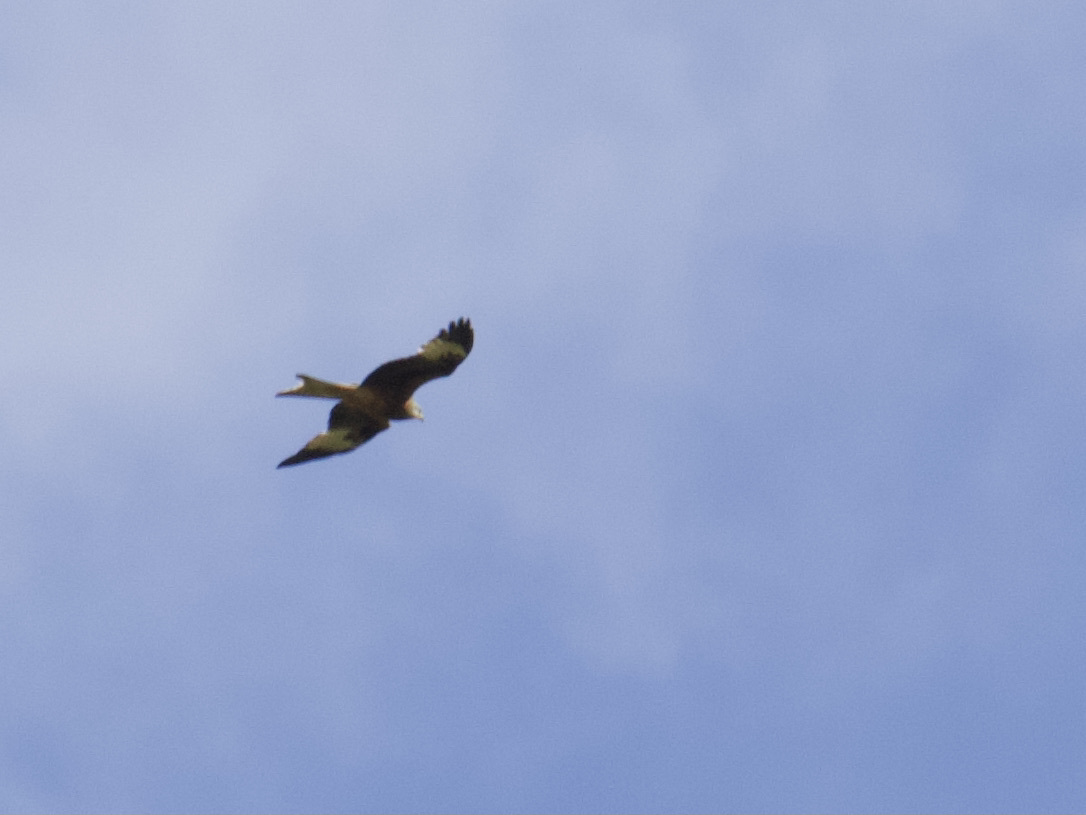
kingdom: Animalia
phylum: Chordata
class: Aves
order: Accipitriformes
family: Accipitridae
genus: Milvus
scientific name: Milvus milvus
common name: Red kite
